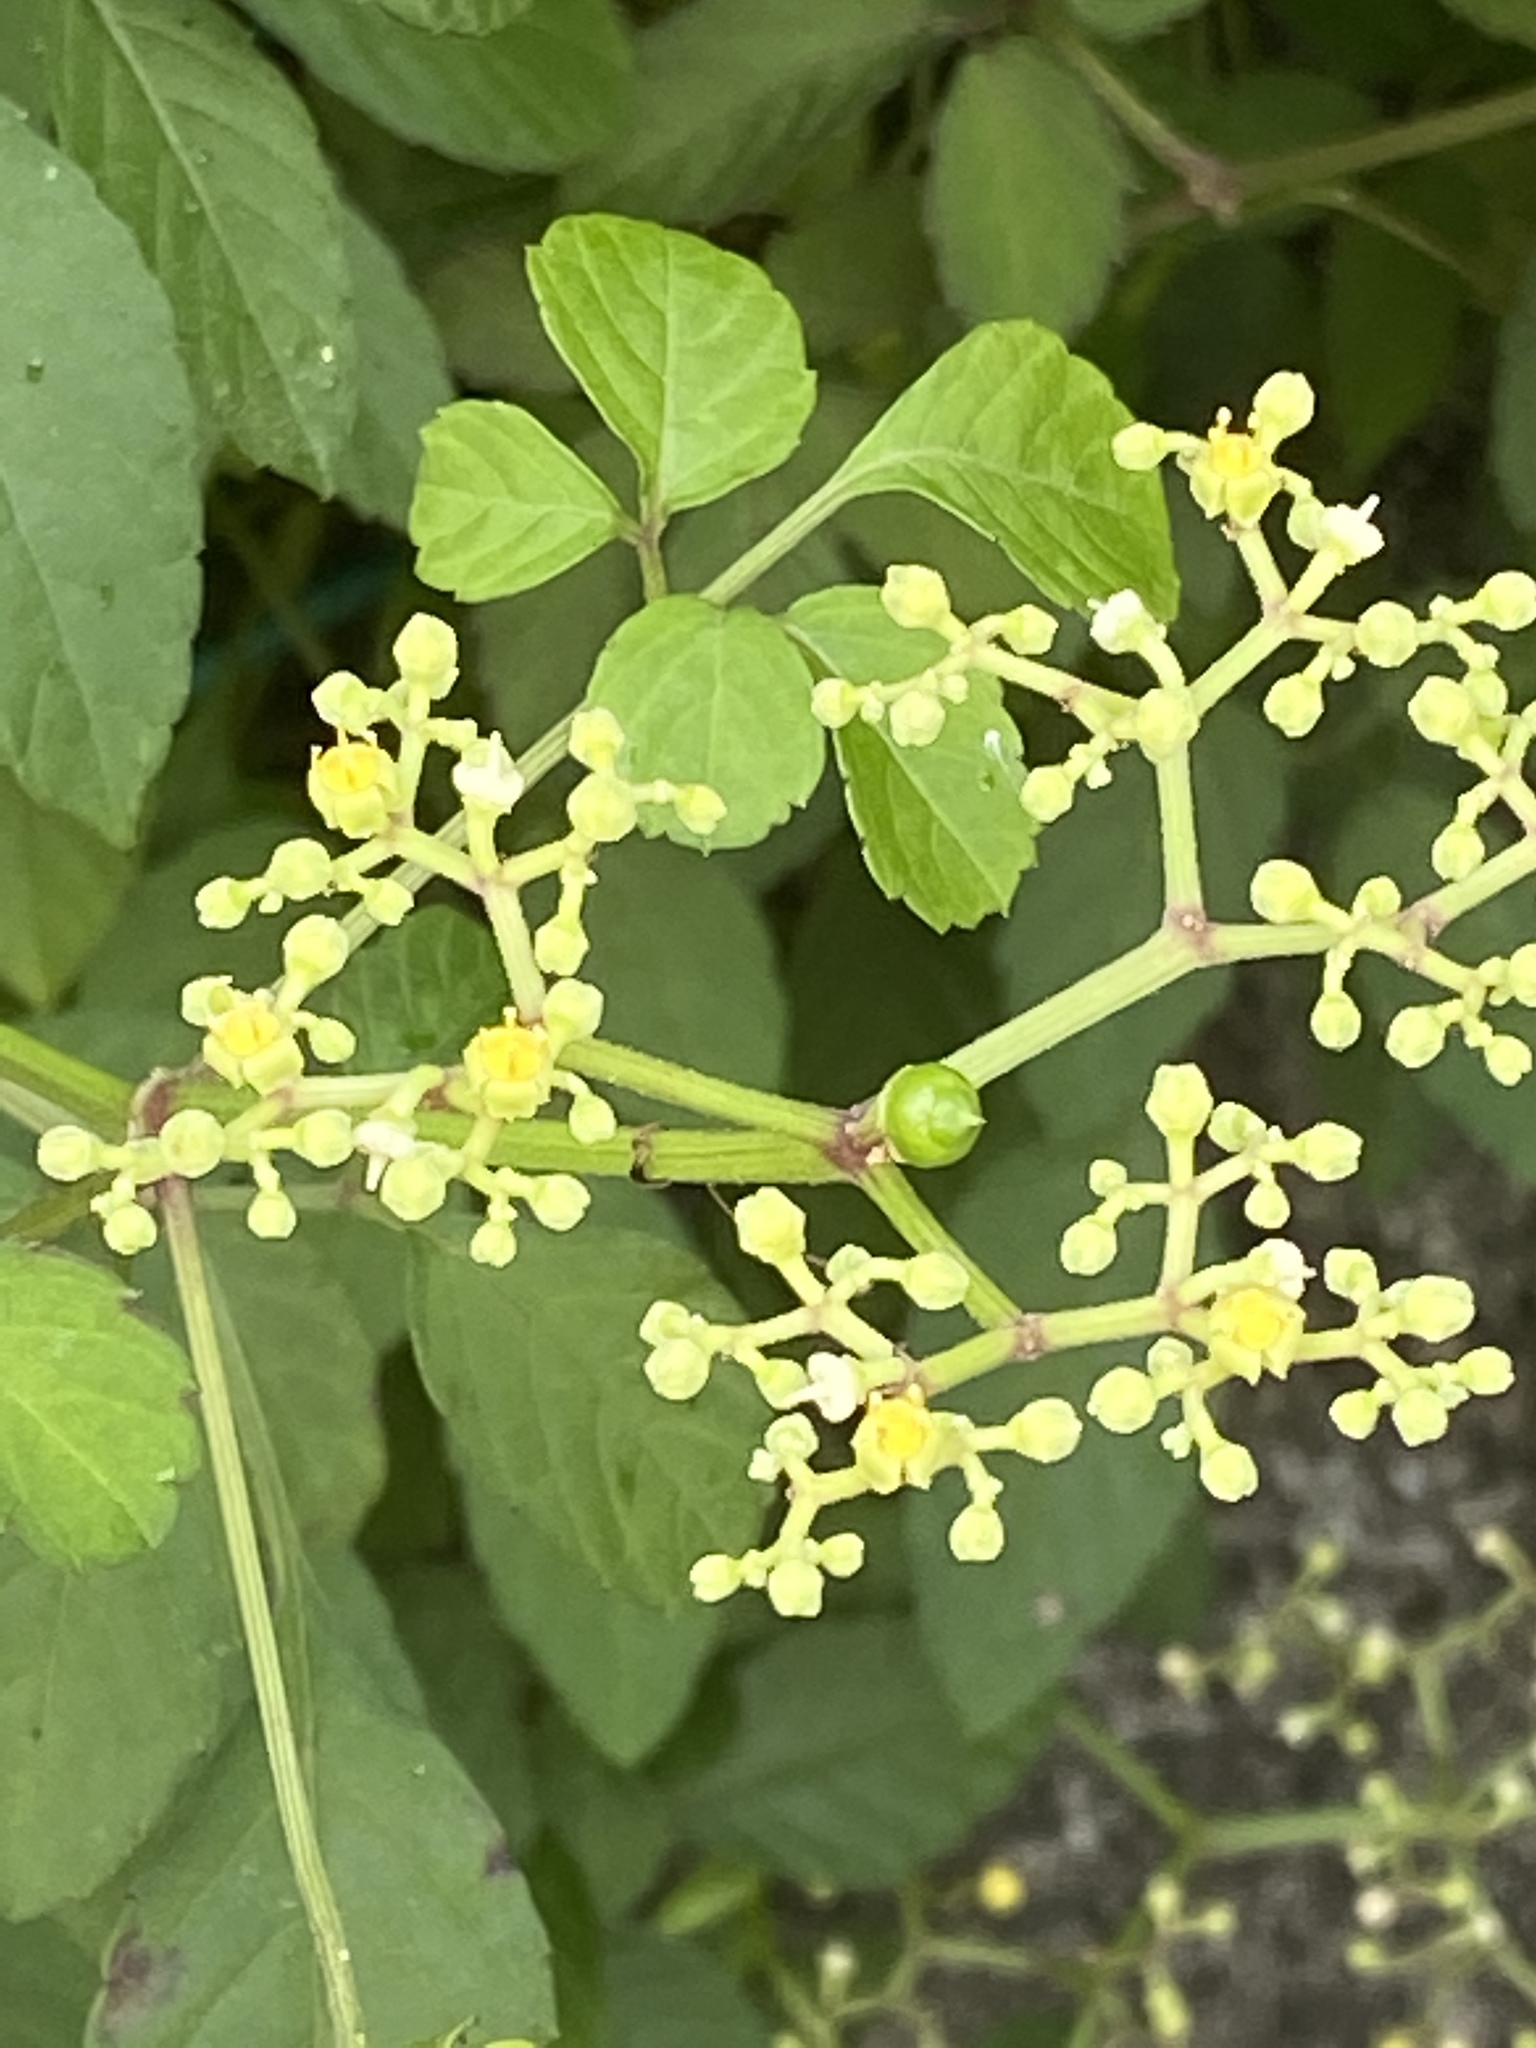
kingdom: Plantae
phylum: Tracheophyta
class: Magnoliopsida
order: Vitales
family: Vitaceae
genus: Causonis
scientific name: Causonis japonica
